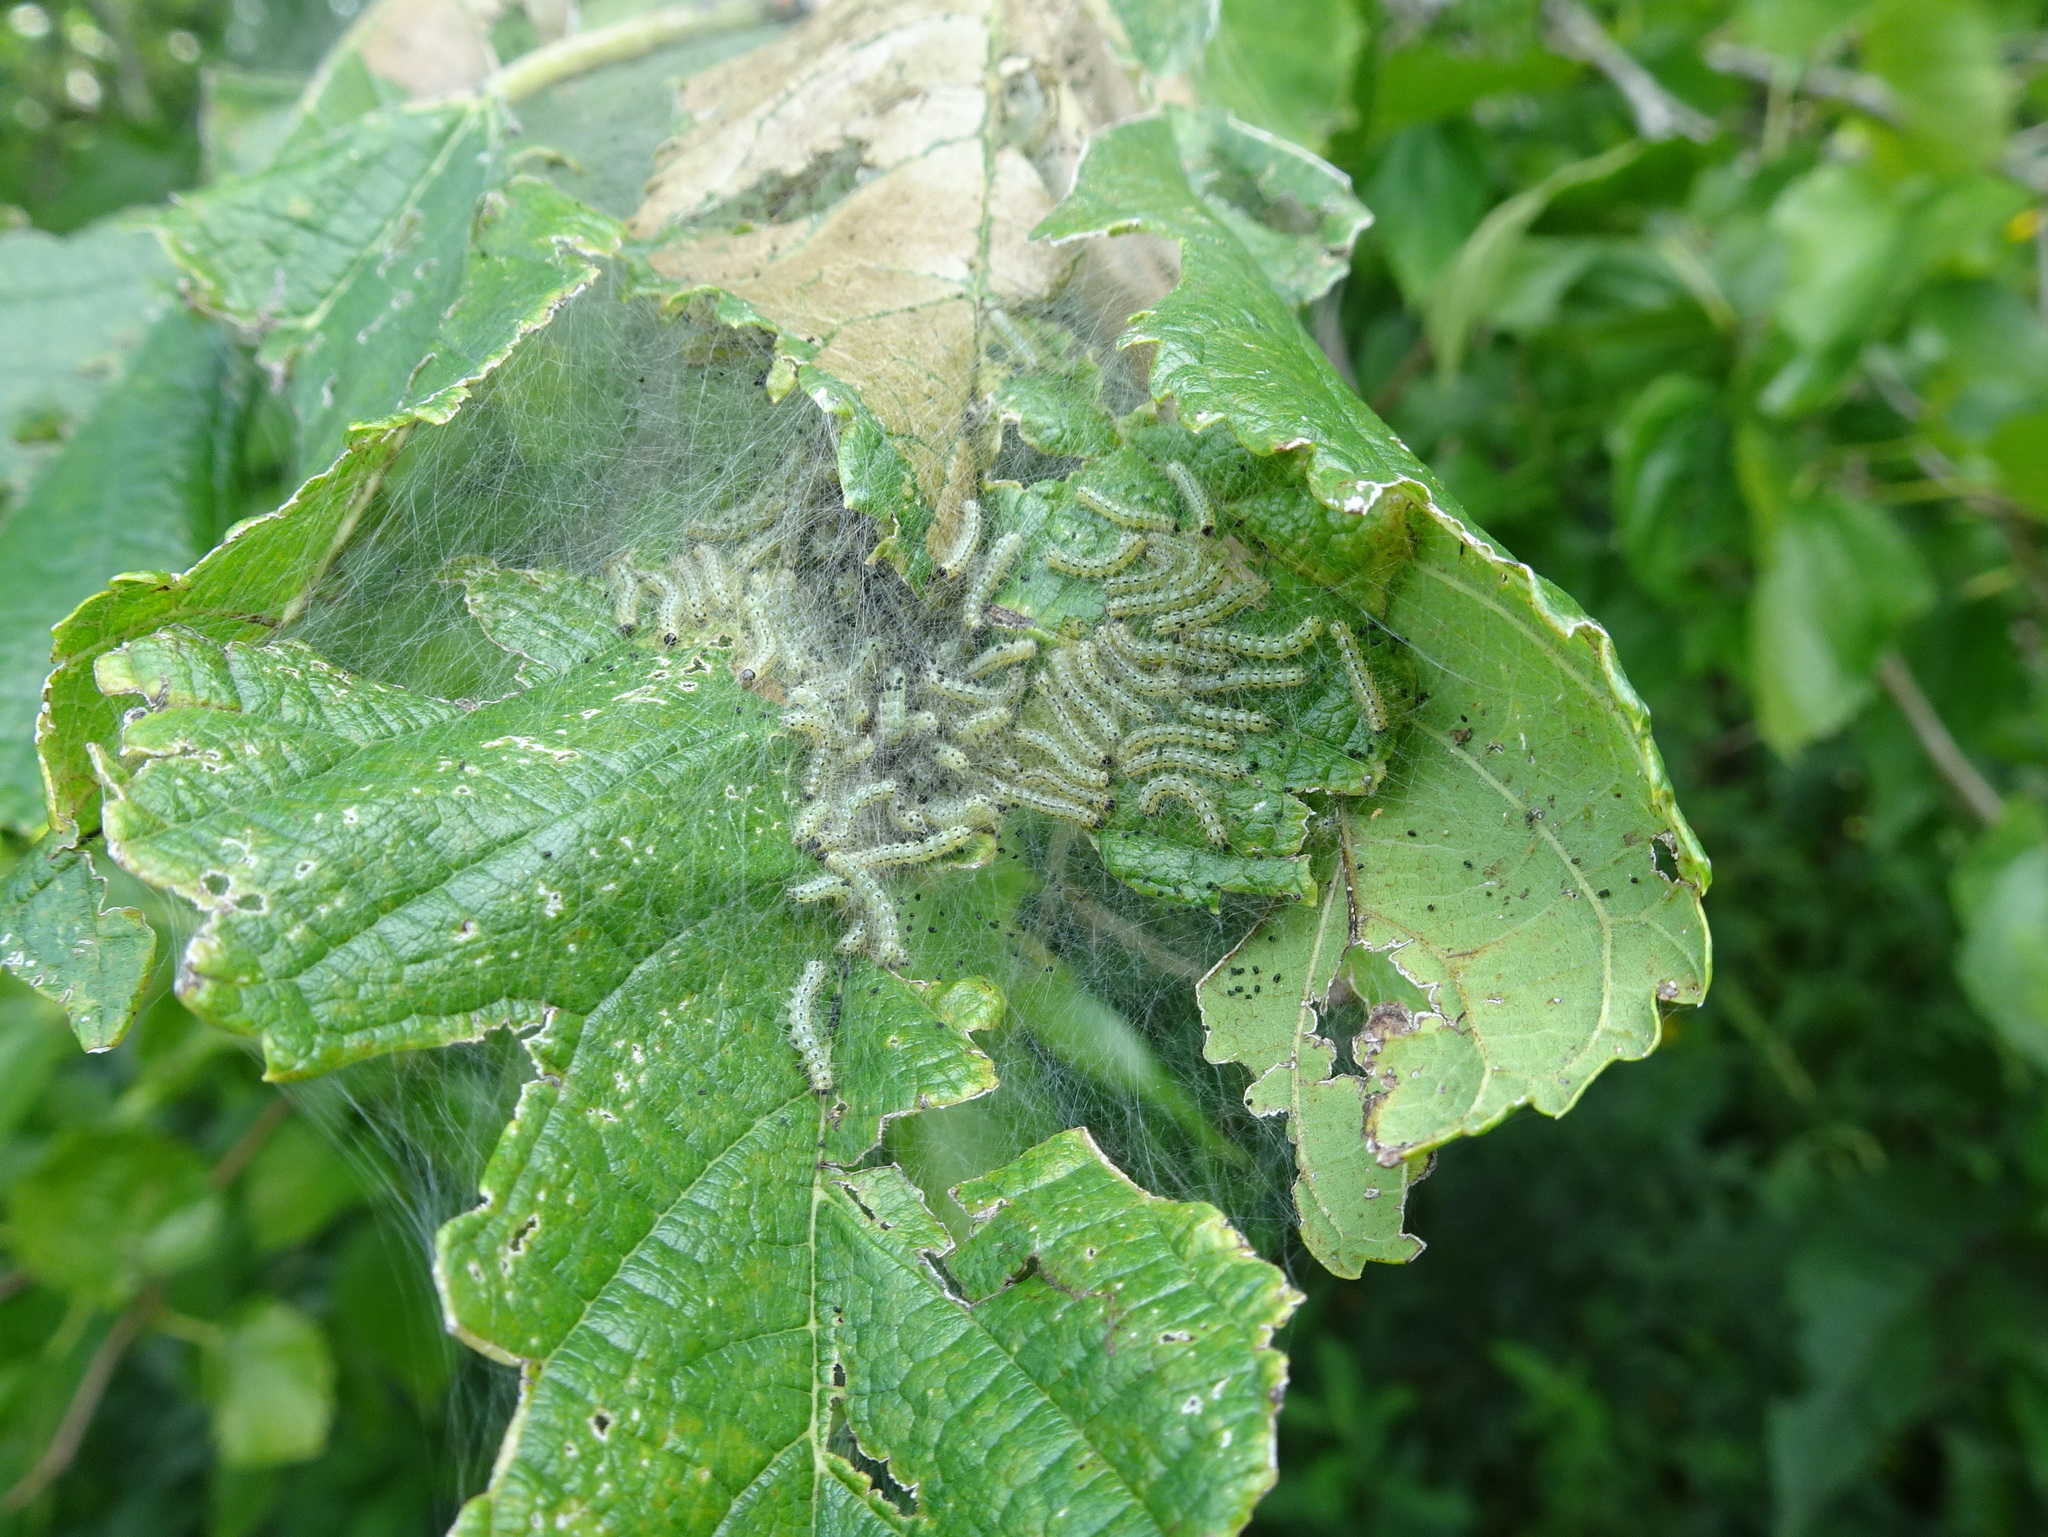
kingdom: Animalia
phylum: Arthropoda
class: Insecta
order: Lepidoptera
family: Erebidae
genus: Hyphantria
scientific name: Hyphantria cunea
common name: American white moth
